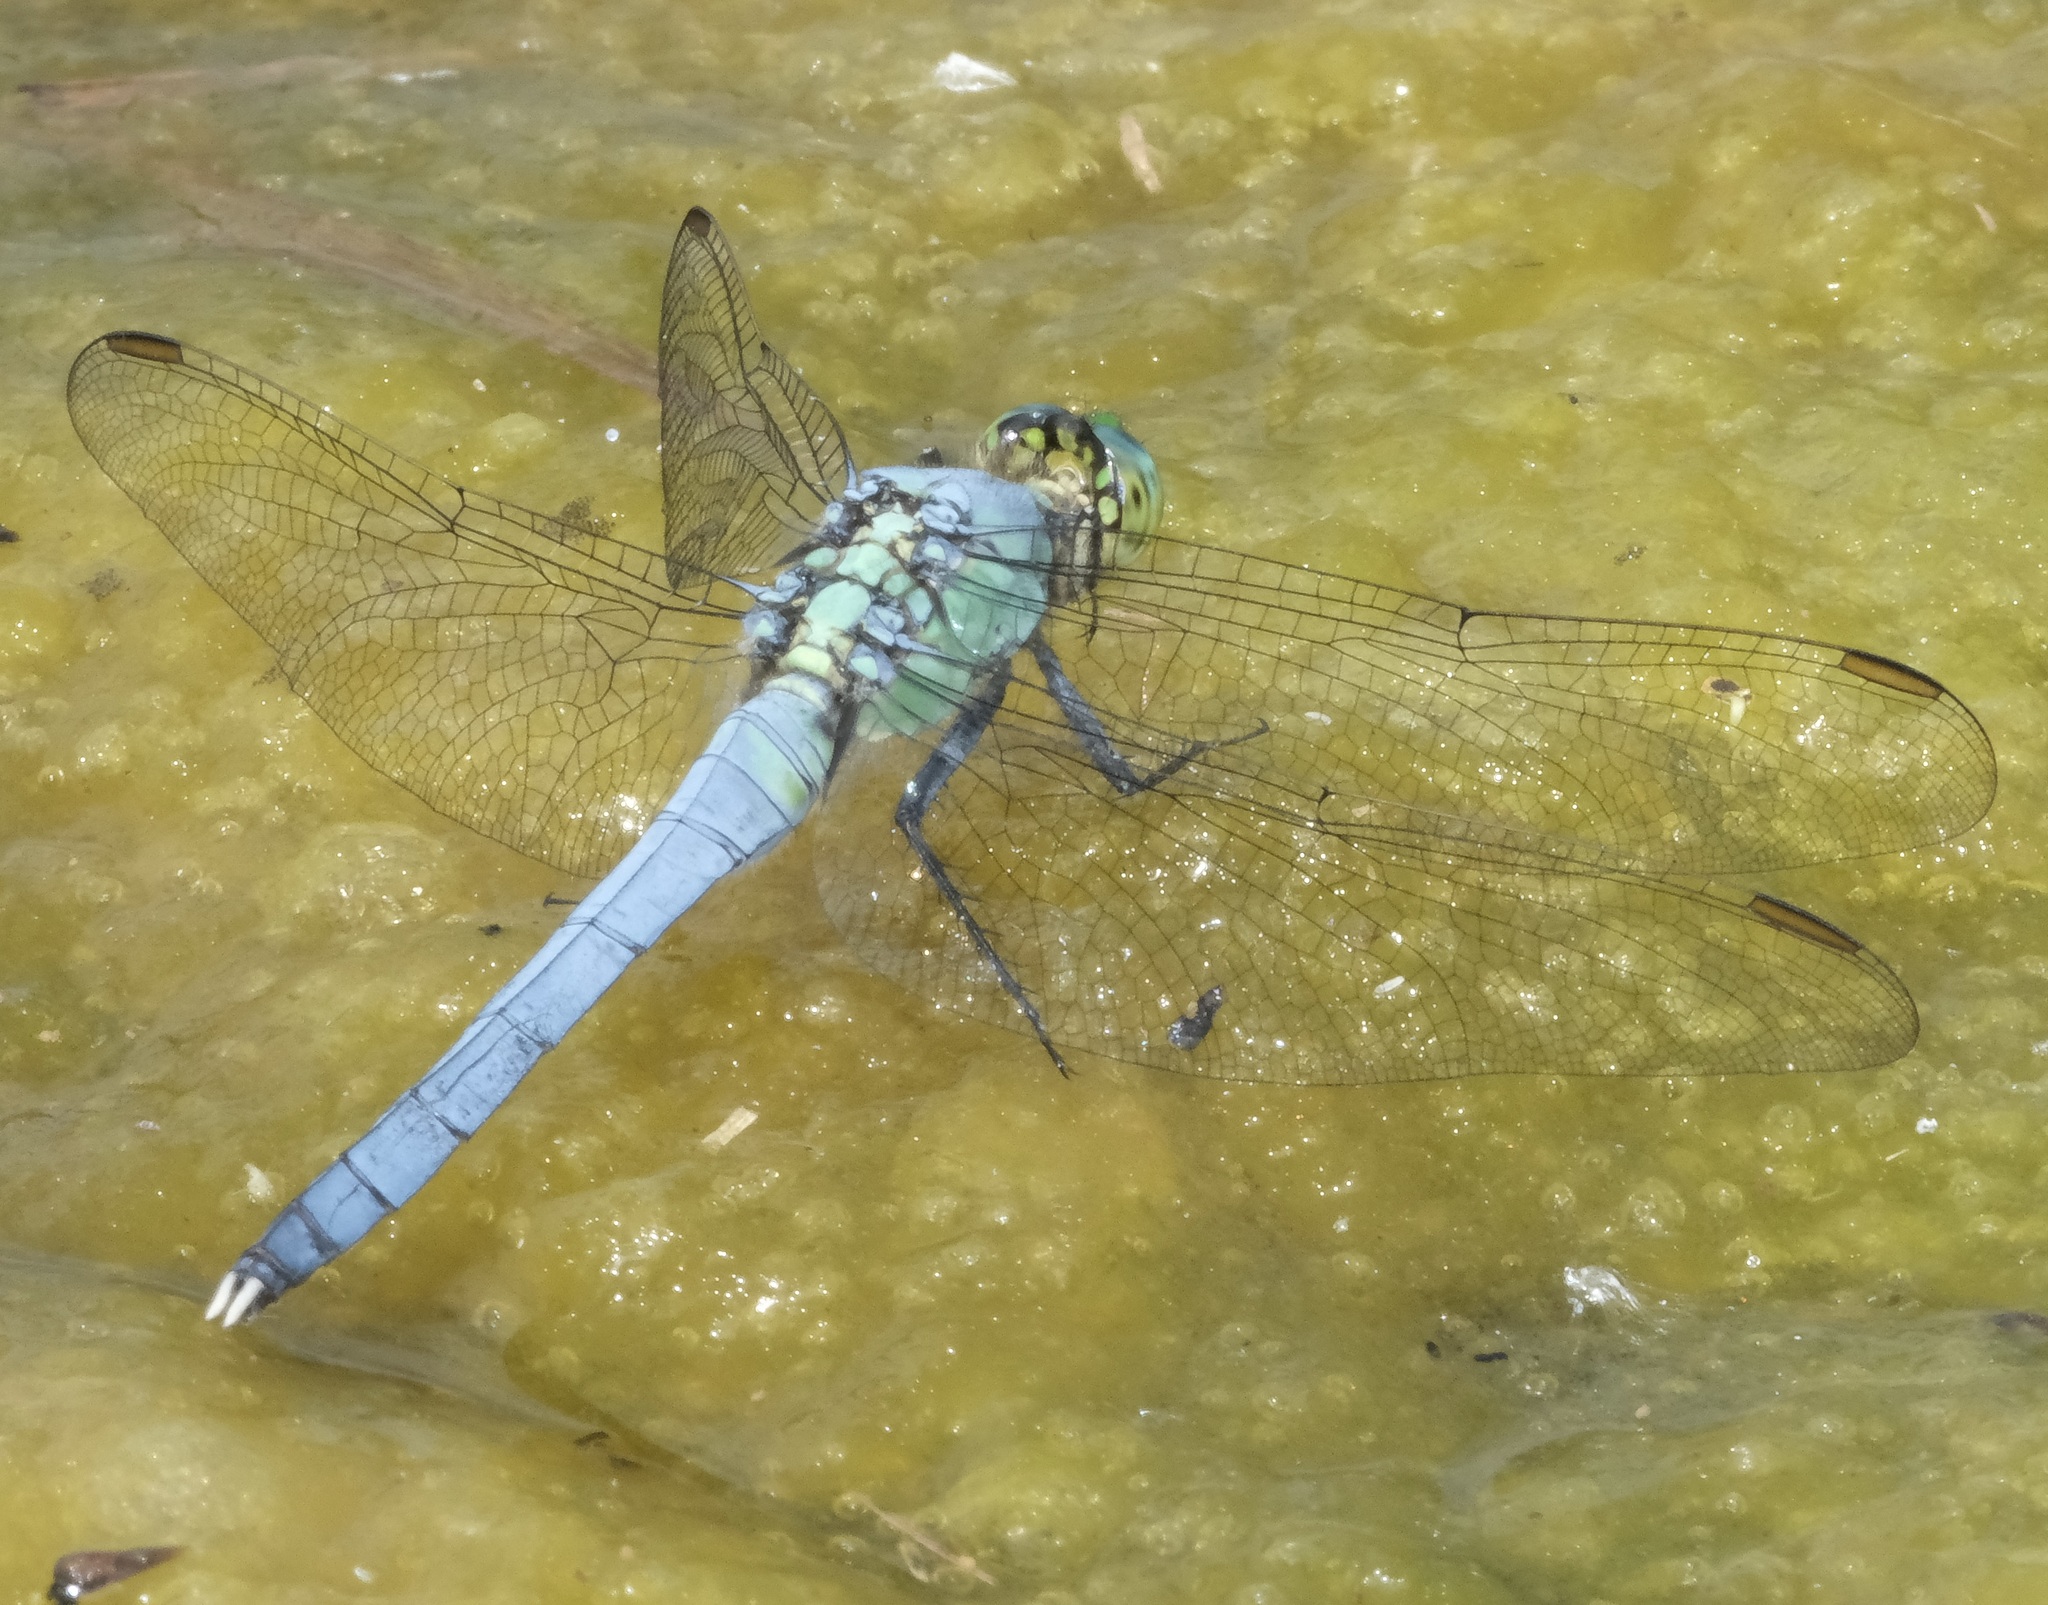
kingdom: Animalia
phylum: Arthropoda
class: Insecta
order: Odonata
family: Libellulidae
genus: Erythemis
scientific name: Erythemis simplicicollis
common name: Eastern pondhawk
